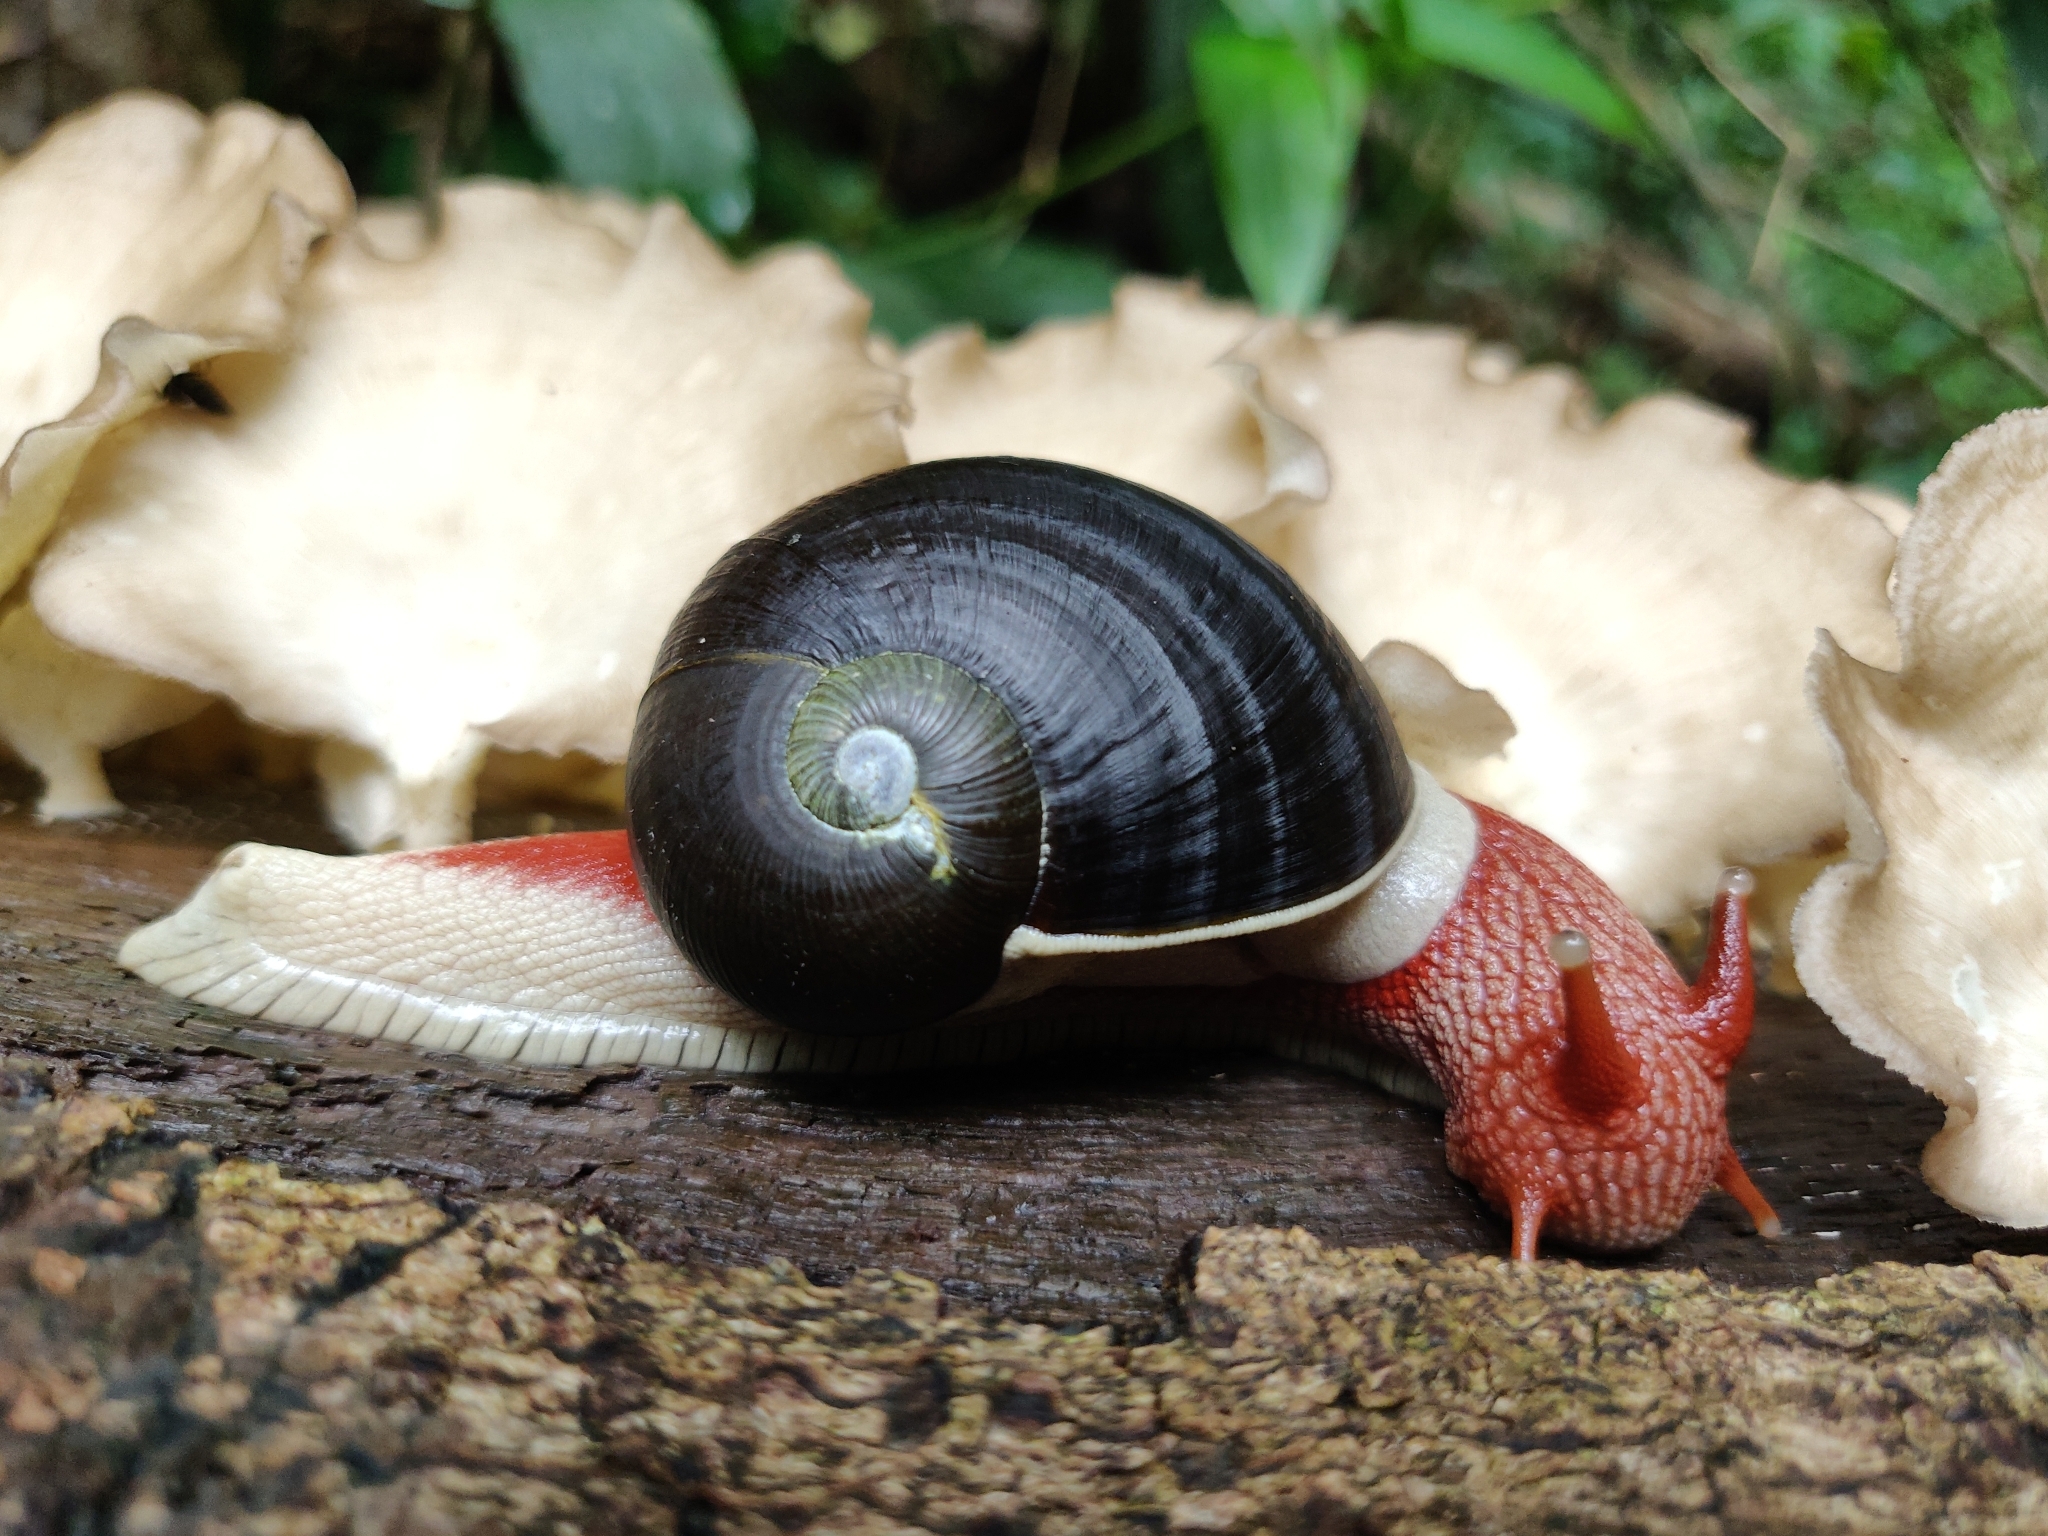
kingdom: Animalia
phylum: Mollusca
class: Gastropoda
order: Stylommatophora
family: Ariophantidae
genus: Indrella
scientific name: Indrella ampulla
